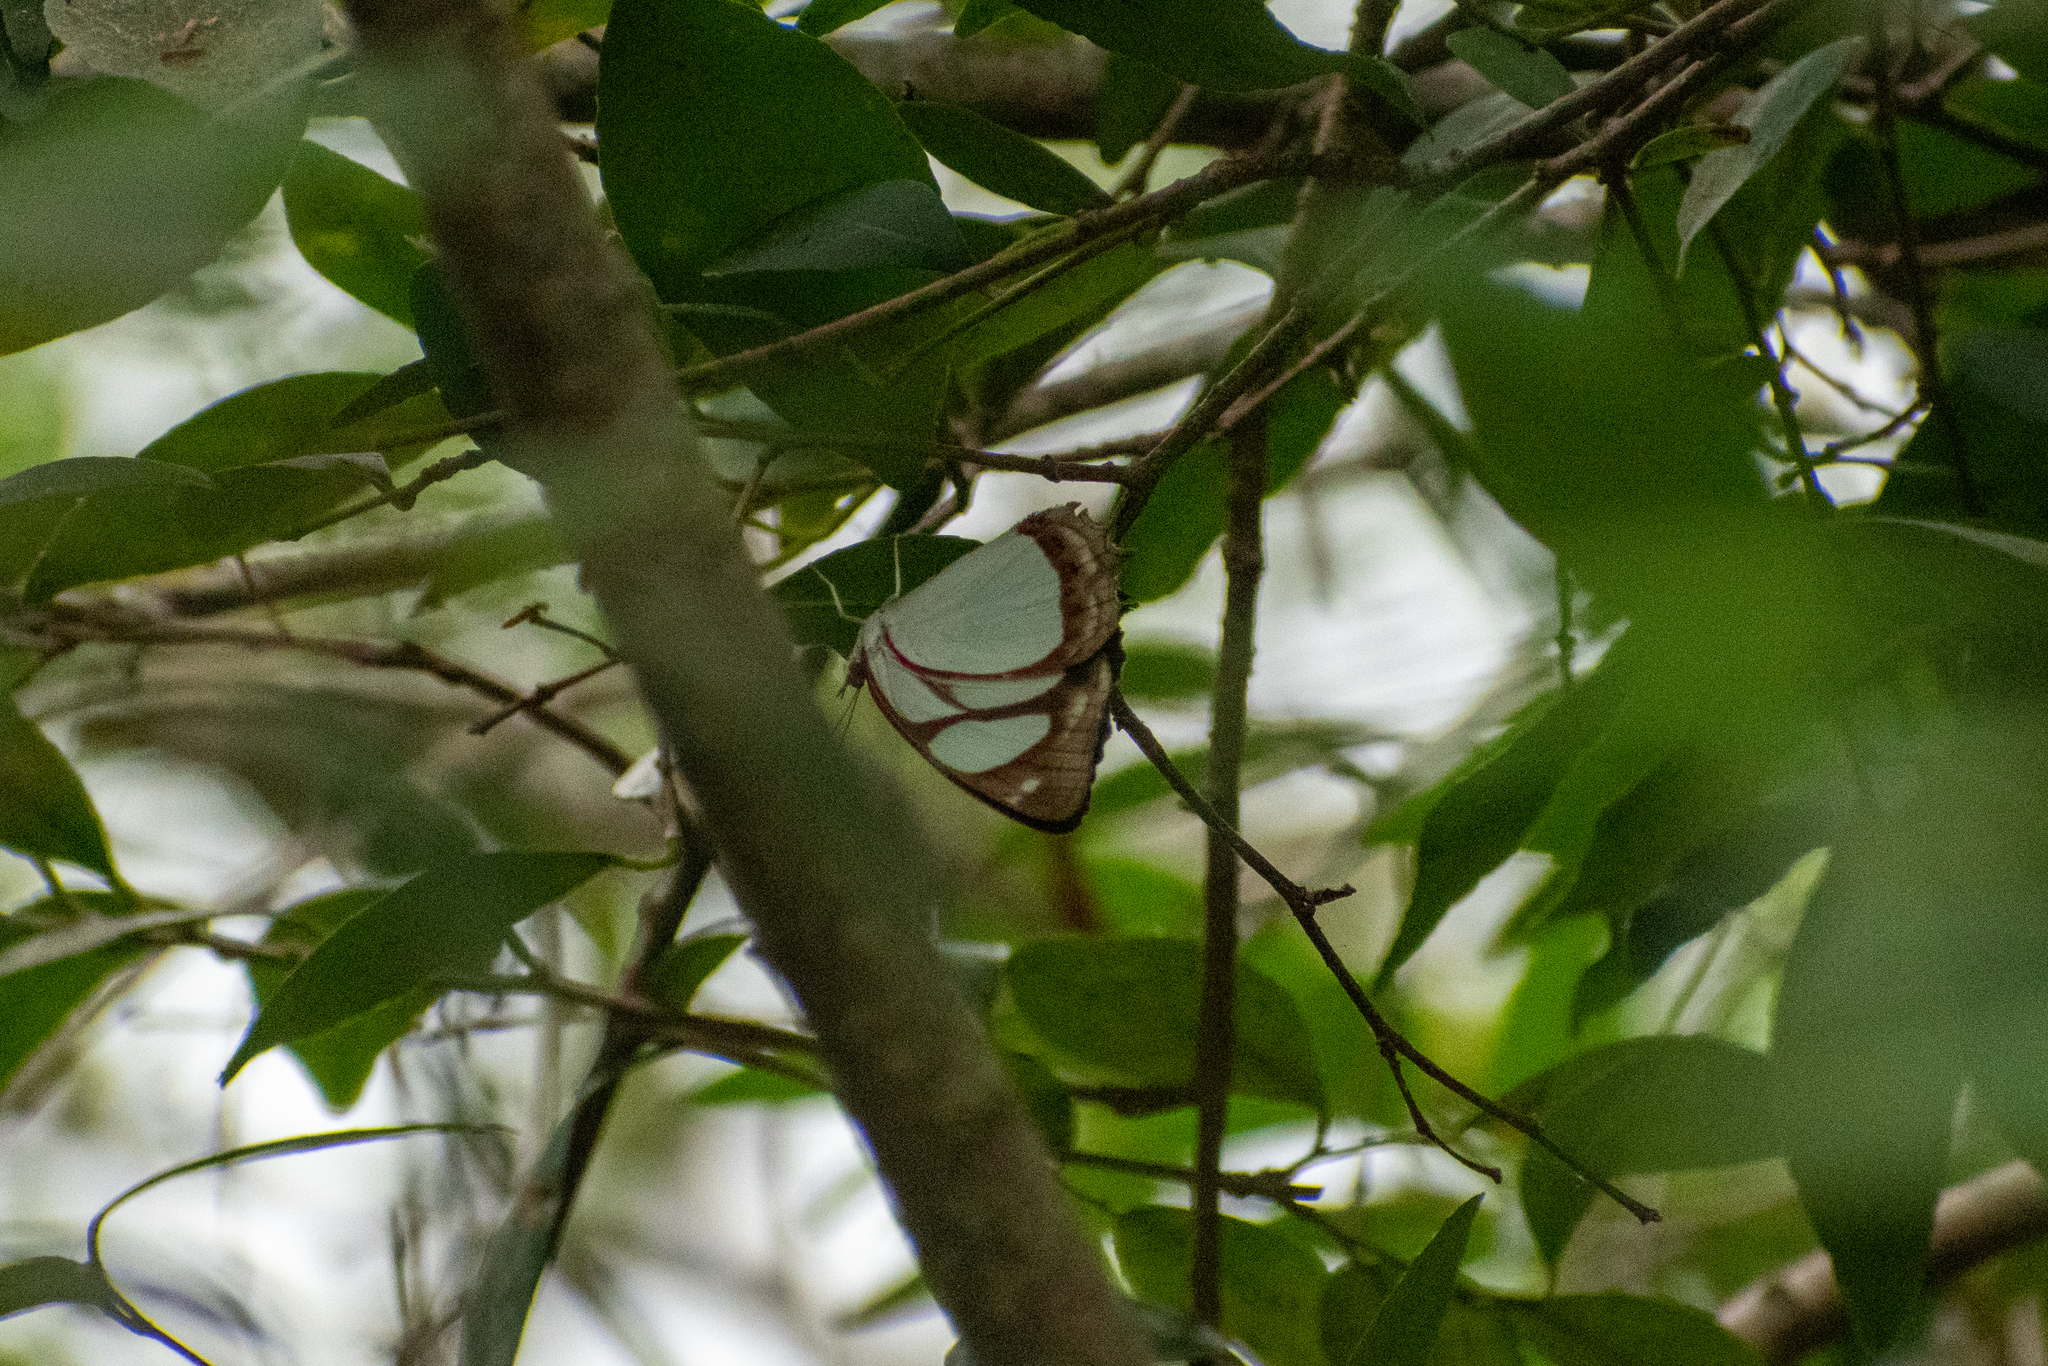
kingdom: Animalia
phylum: Arthropoda
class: Insecta
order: Lepidoptera
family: Nymphalidae
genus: Pyrrhogyra
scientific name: Pyrrhogyra neaerea
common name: Leading red-ring
